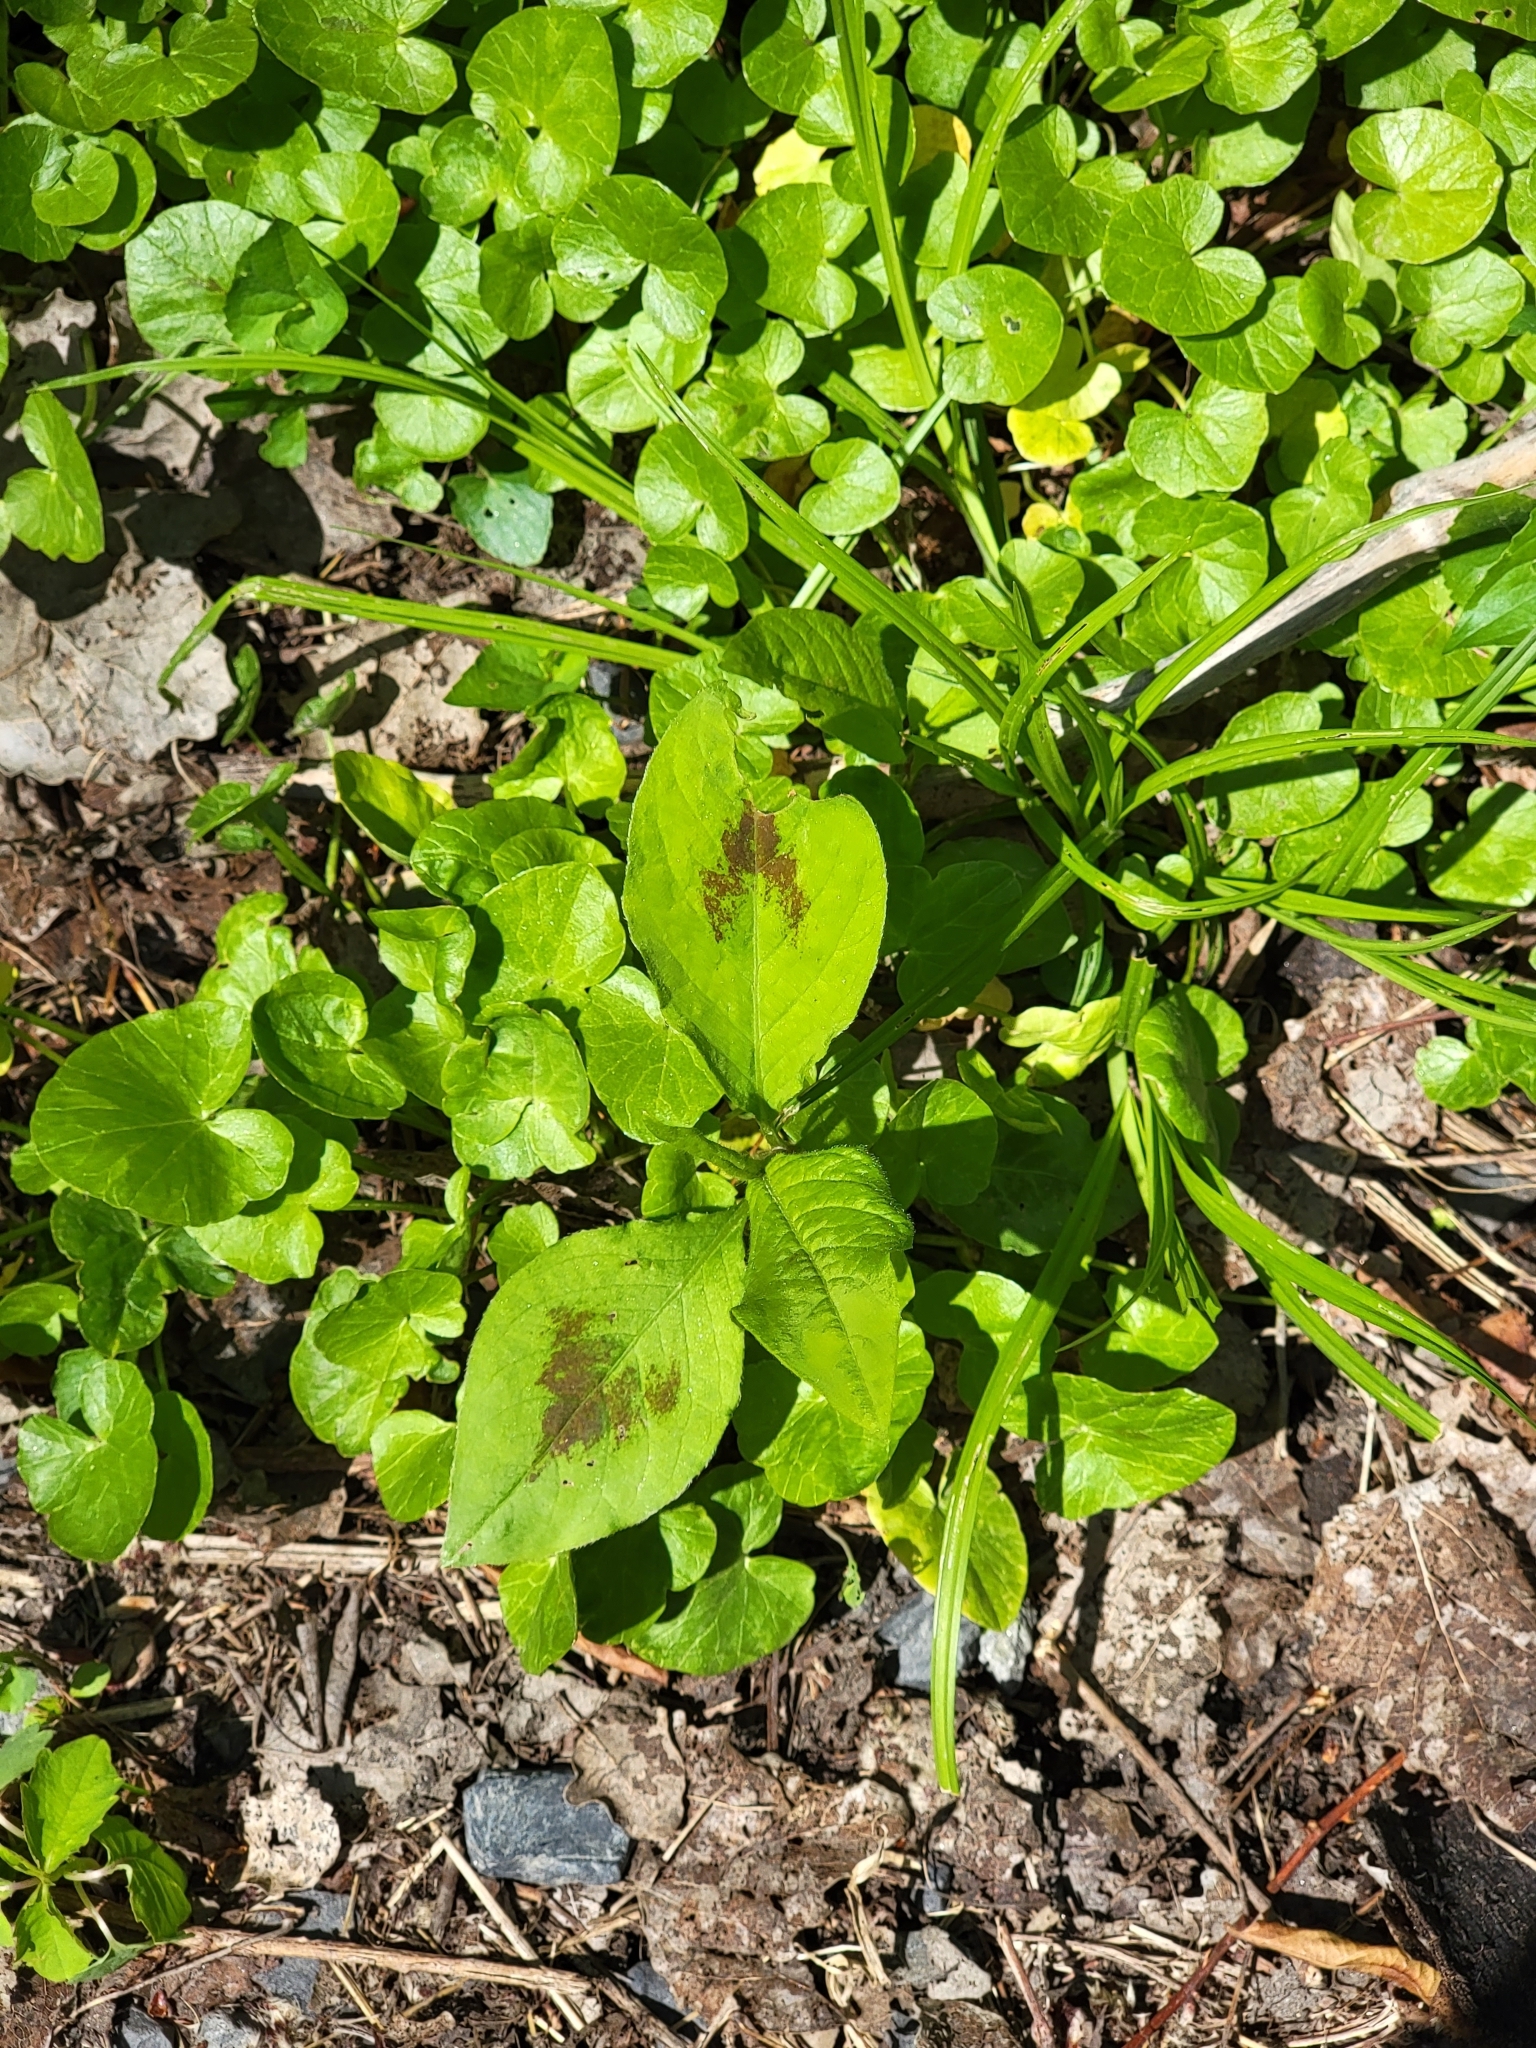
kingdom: Plantae
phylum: Tracheophyta
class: Magnoliopsida
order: Caryophyllales
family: Polygonaceae
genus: Persicaria
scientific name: Persicaria virginiana
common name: Jumpseed
